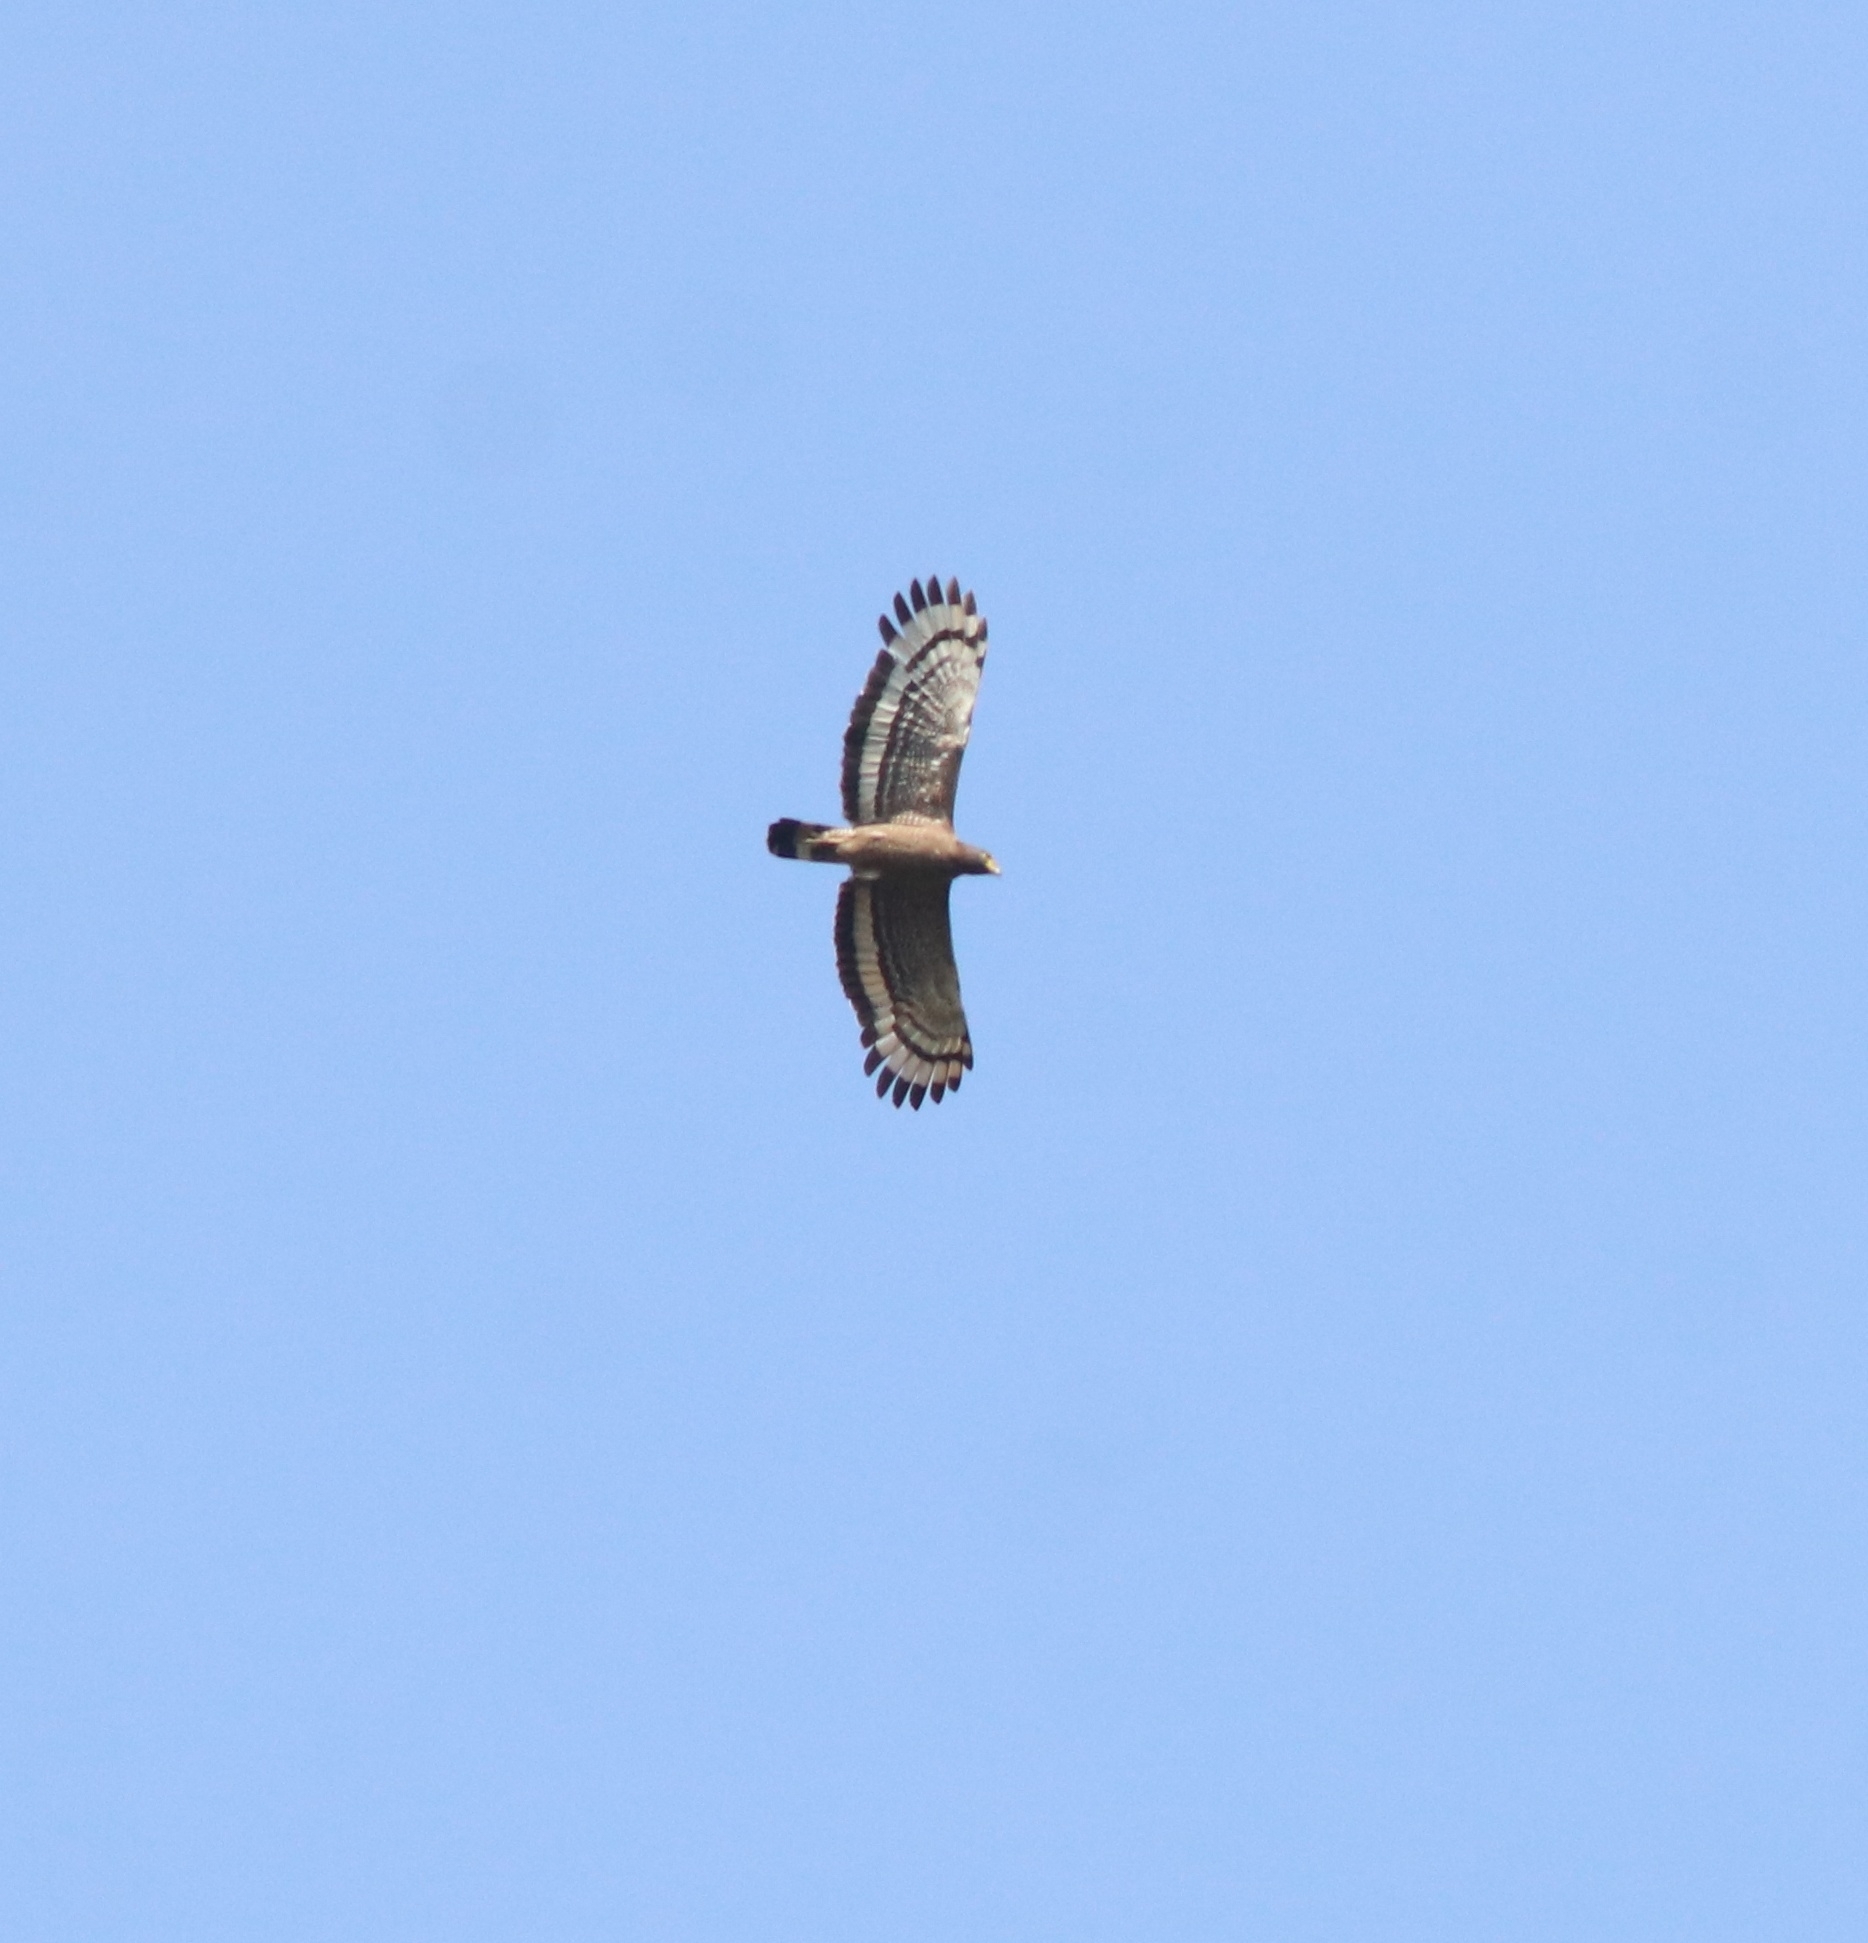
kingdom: Animalia
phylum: Chordata
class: Aves
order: Accipitriformes
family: Accipitridae
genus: Spilornis
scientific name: Spilornis cheela
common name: Crested serpent eagle
